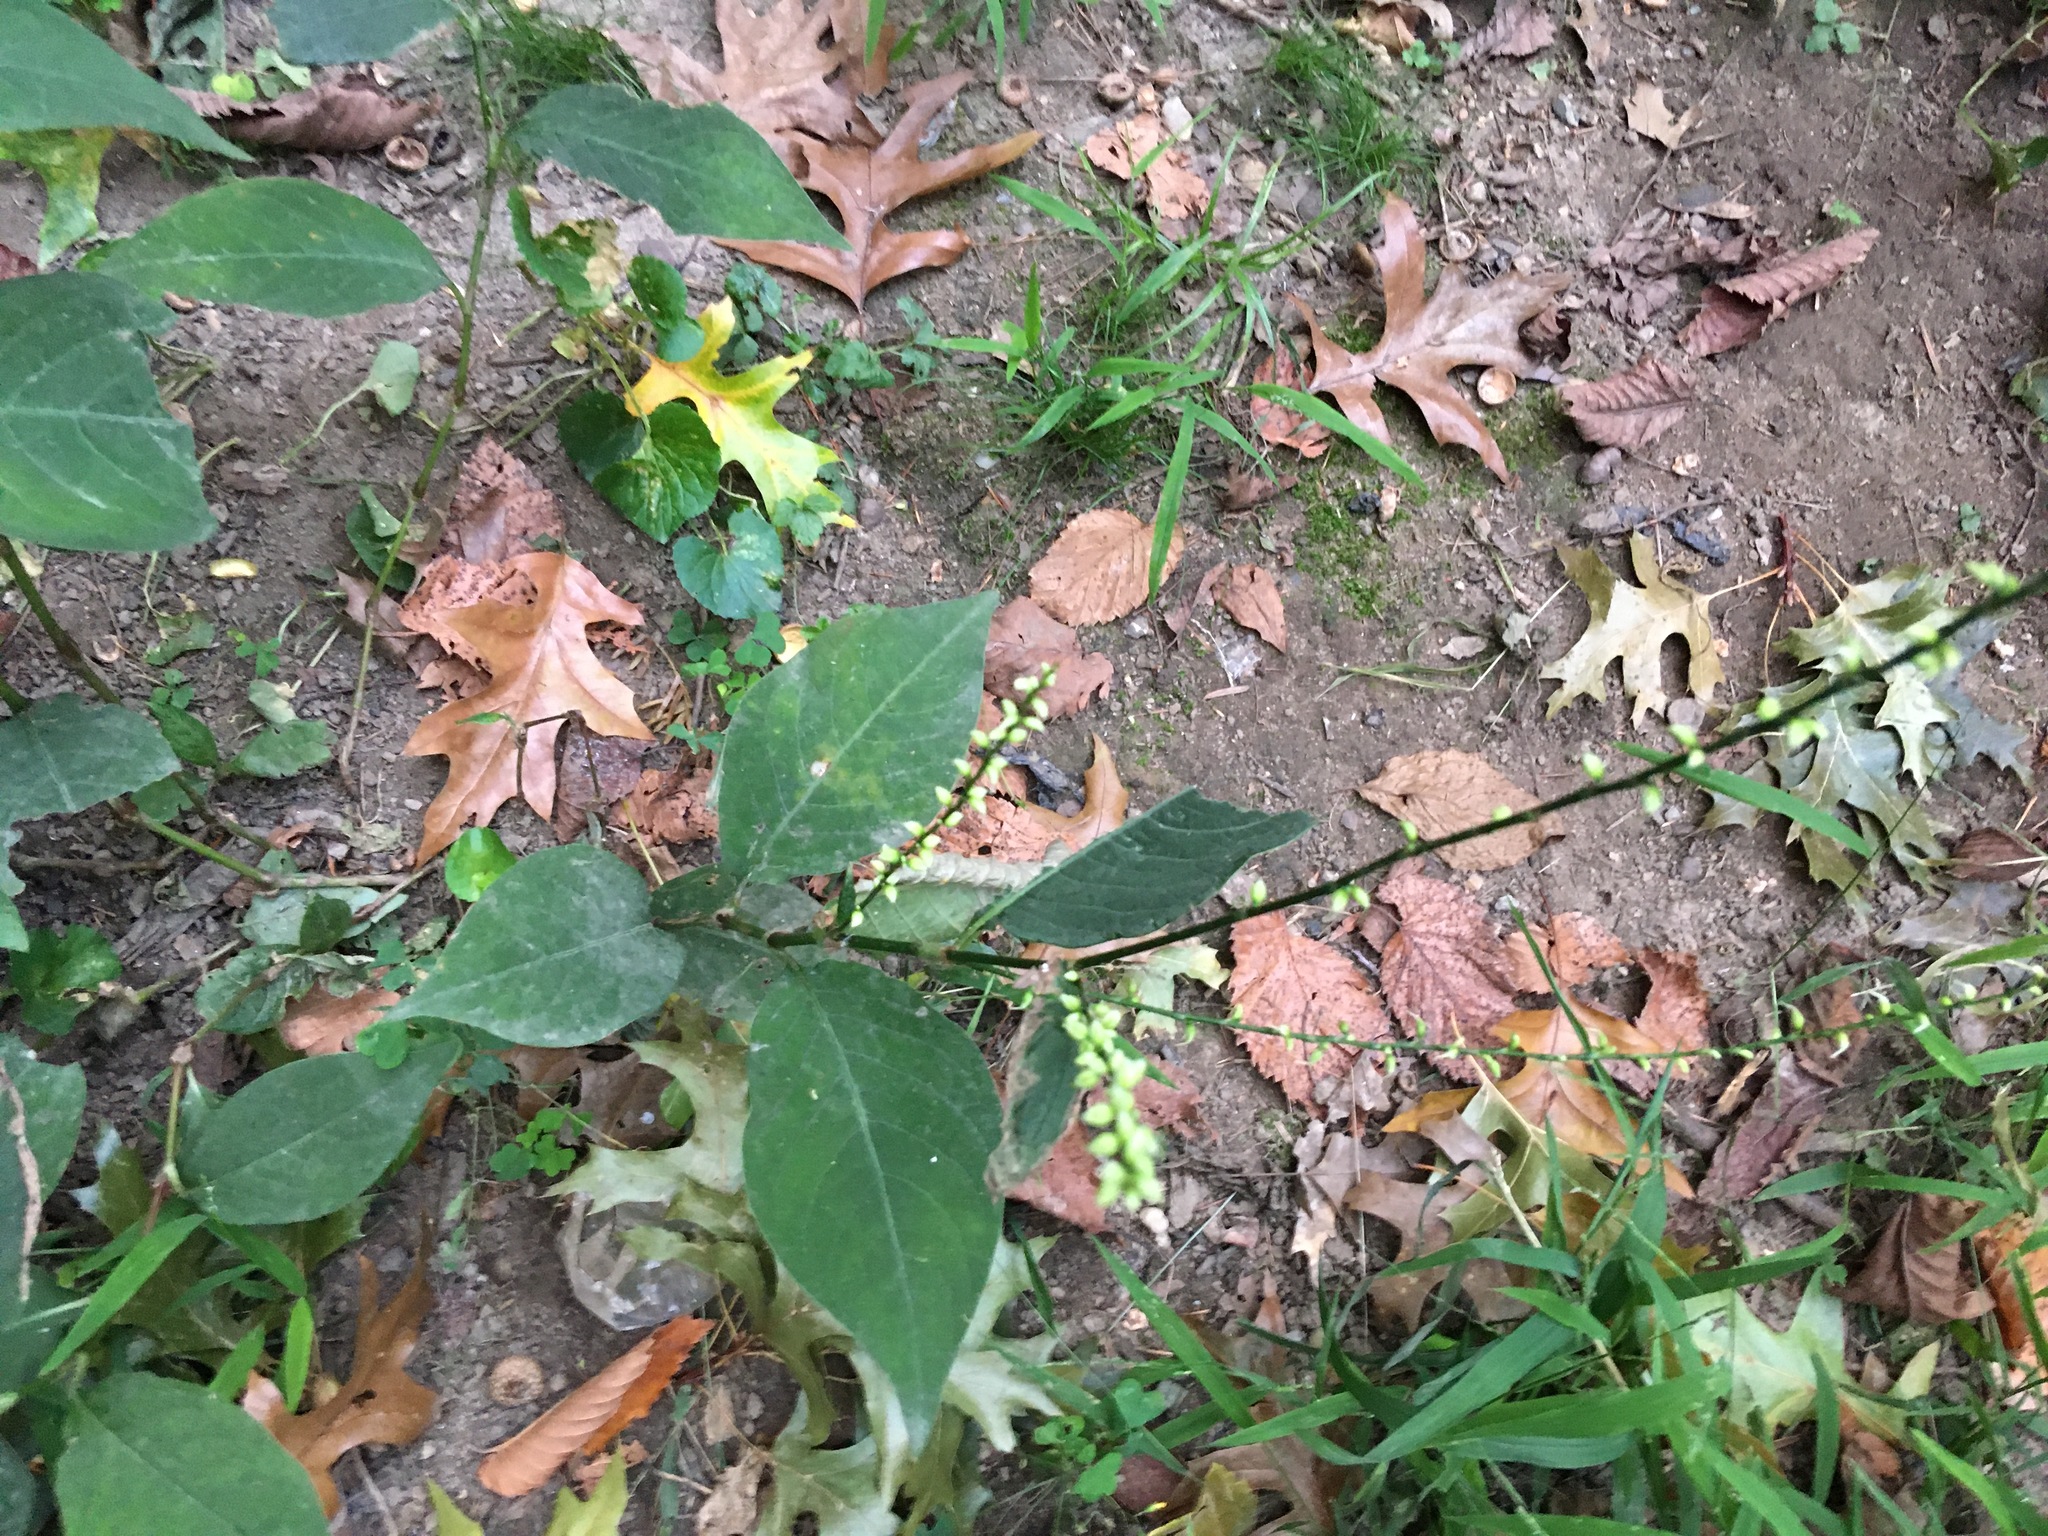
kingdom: Plantae
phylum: Tracheophyta
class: Magnoliopsida
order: Caryophyllales
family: Polygonaceae
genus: Persicaria
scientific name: Persicaria virginiana
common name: Jumpseed
